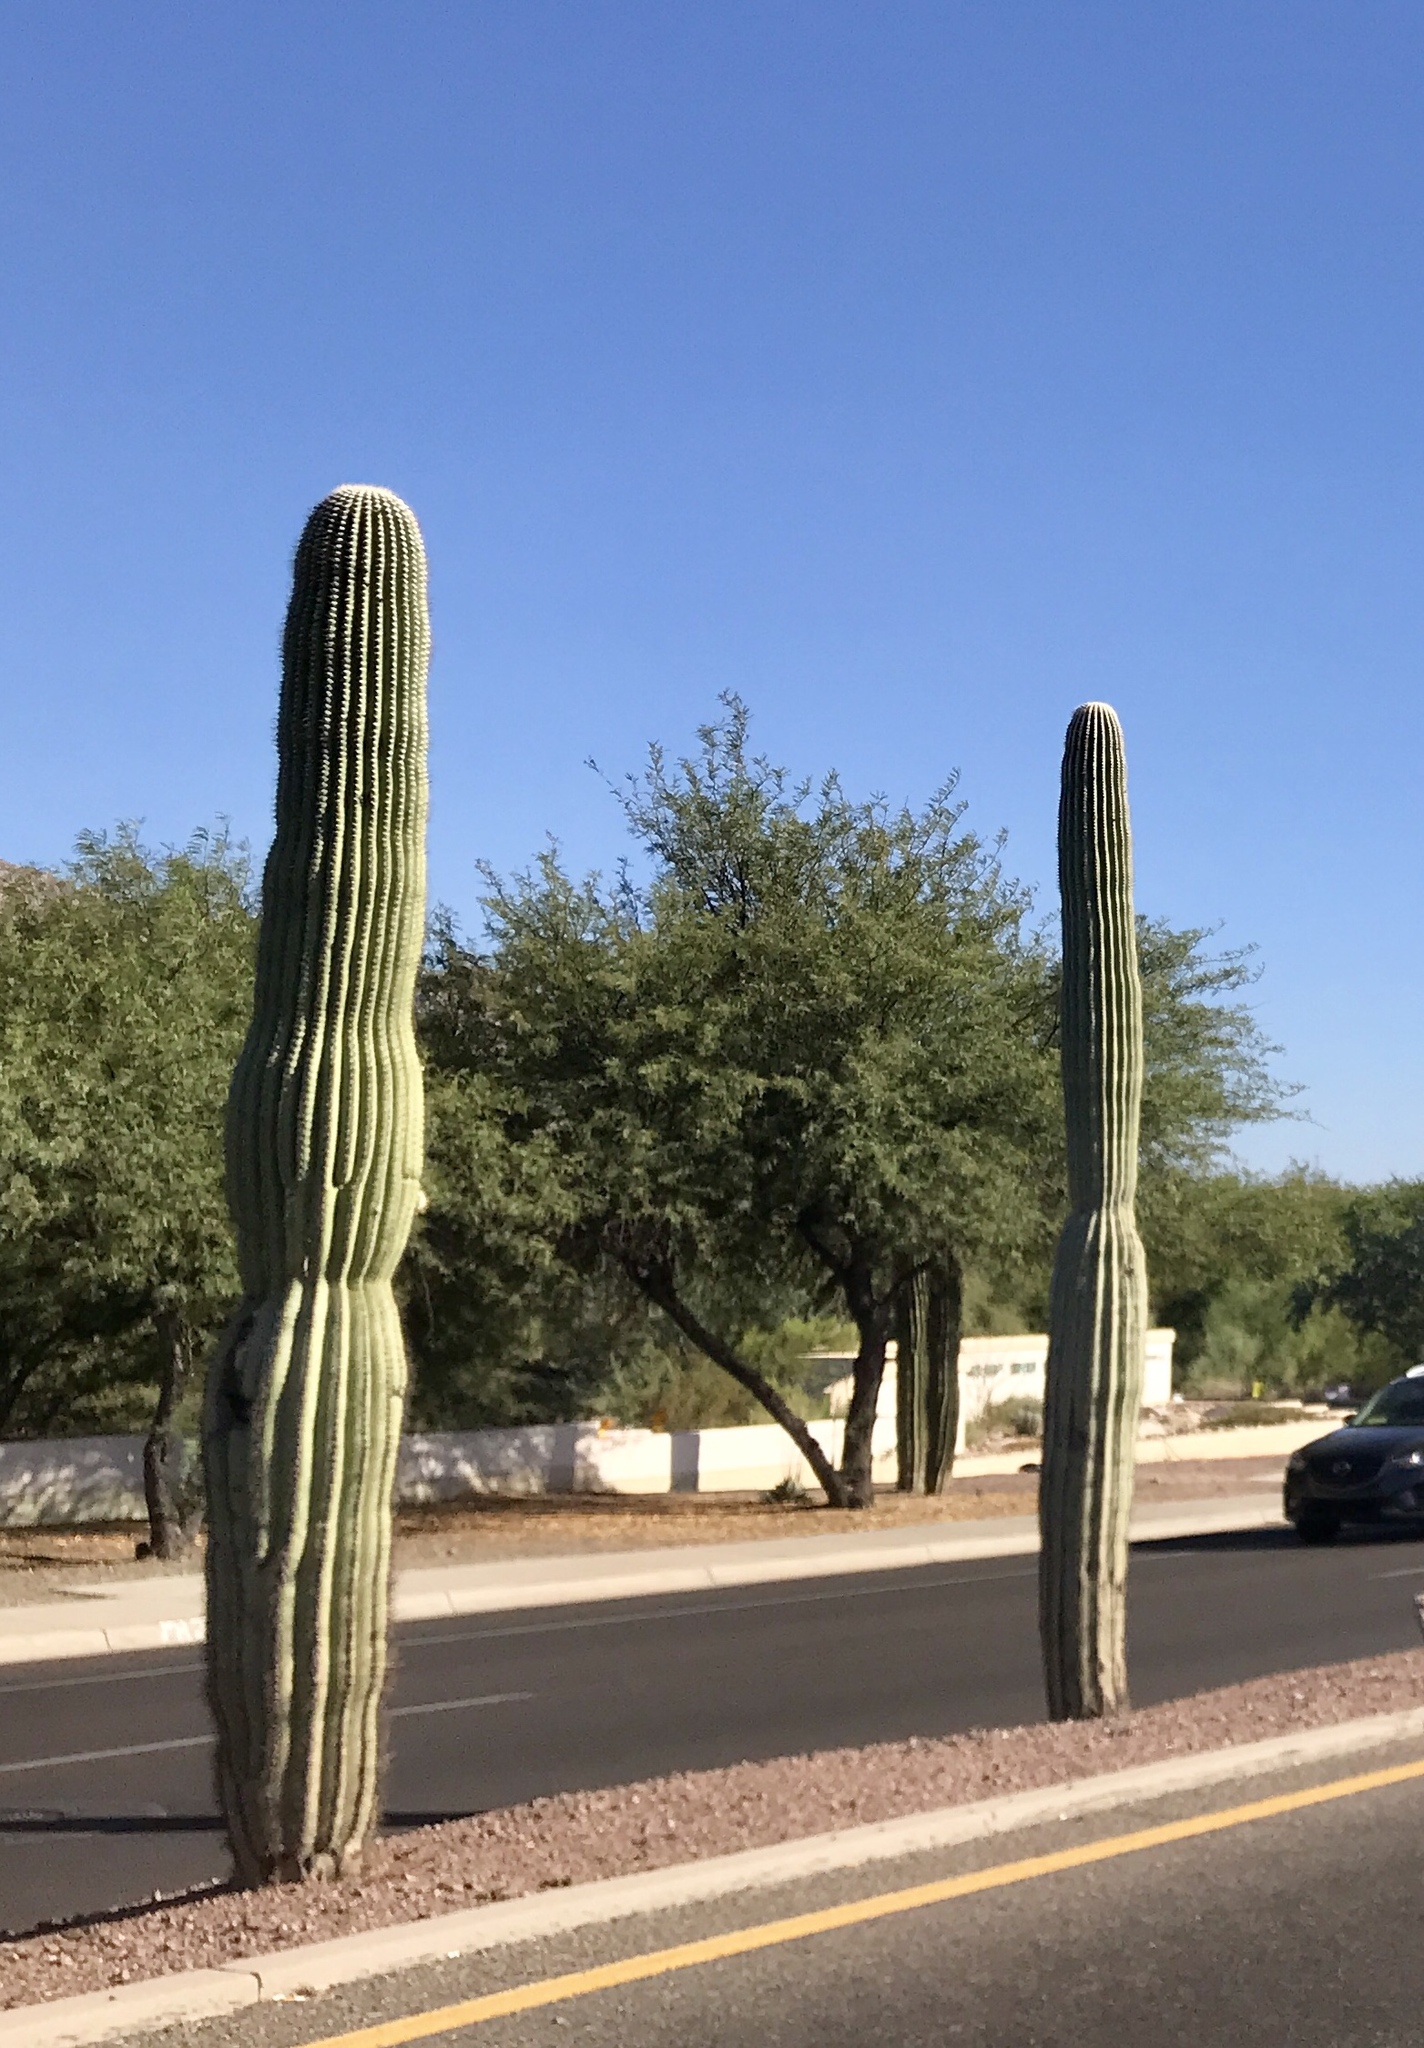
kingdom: Plantae
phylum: Tracheophyta
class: Magnoliopsida
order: Caryophyllales
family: Cactaceae
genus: Carnegiea
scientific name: Carnegiea gigantea
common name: Saguaro
